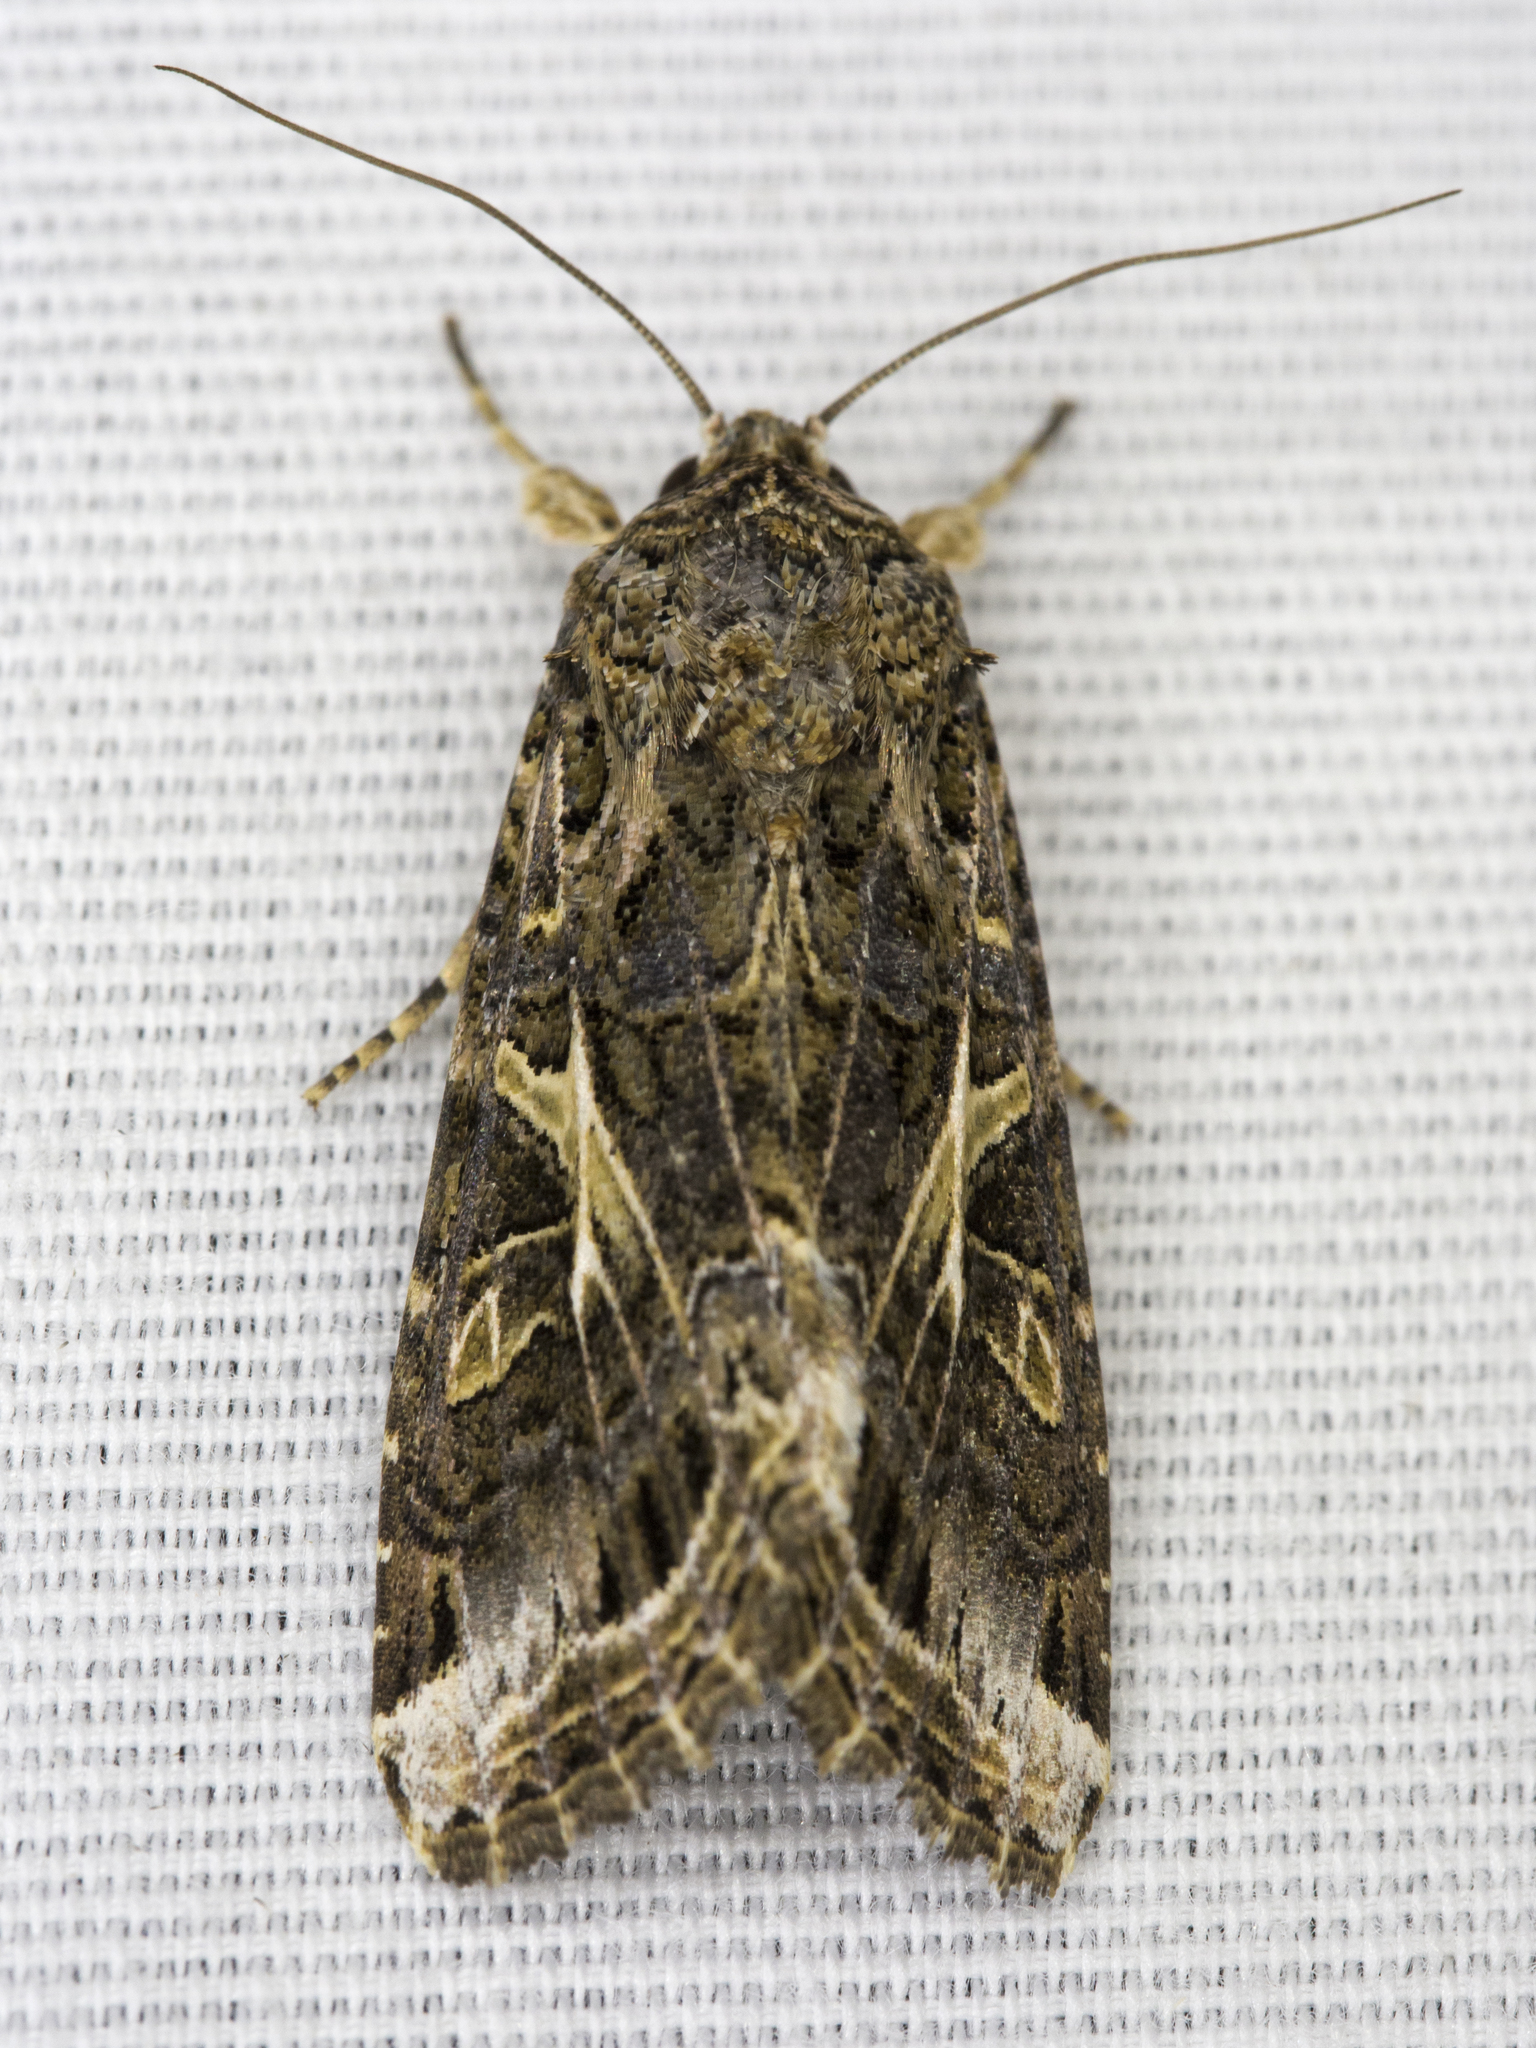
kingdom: Animalia
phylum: Arthropoda
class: Insecta
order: Lepidoptera
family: Noctuidae
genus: Spodoptera
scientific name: Spodoptera ornithogalli
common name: Yellow-striped armyworm
